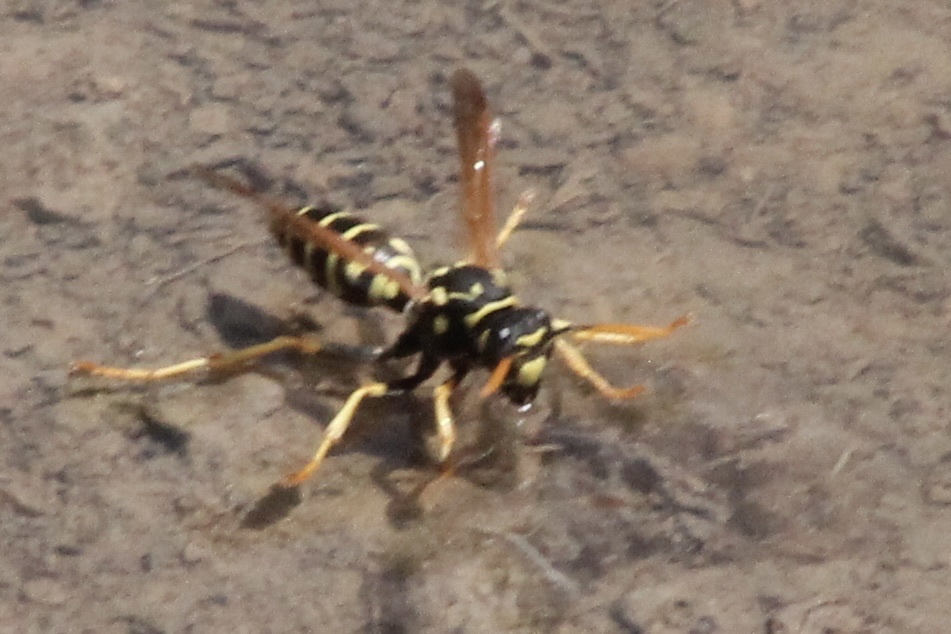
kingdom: Animalia
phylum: Arthropoda
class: Insecta
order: Hymenoptera
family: Eumenidae
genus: Polistes
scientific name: Polistes dominula
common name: Paper wasp
